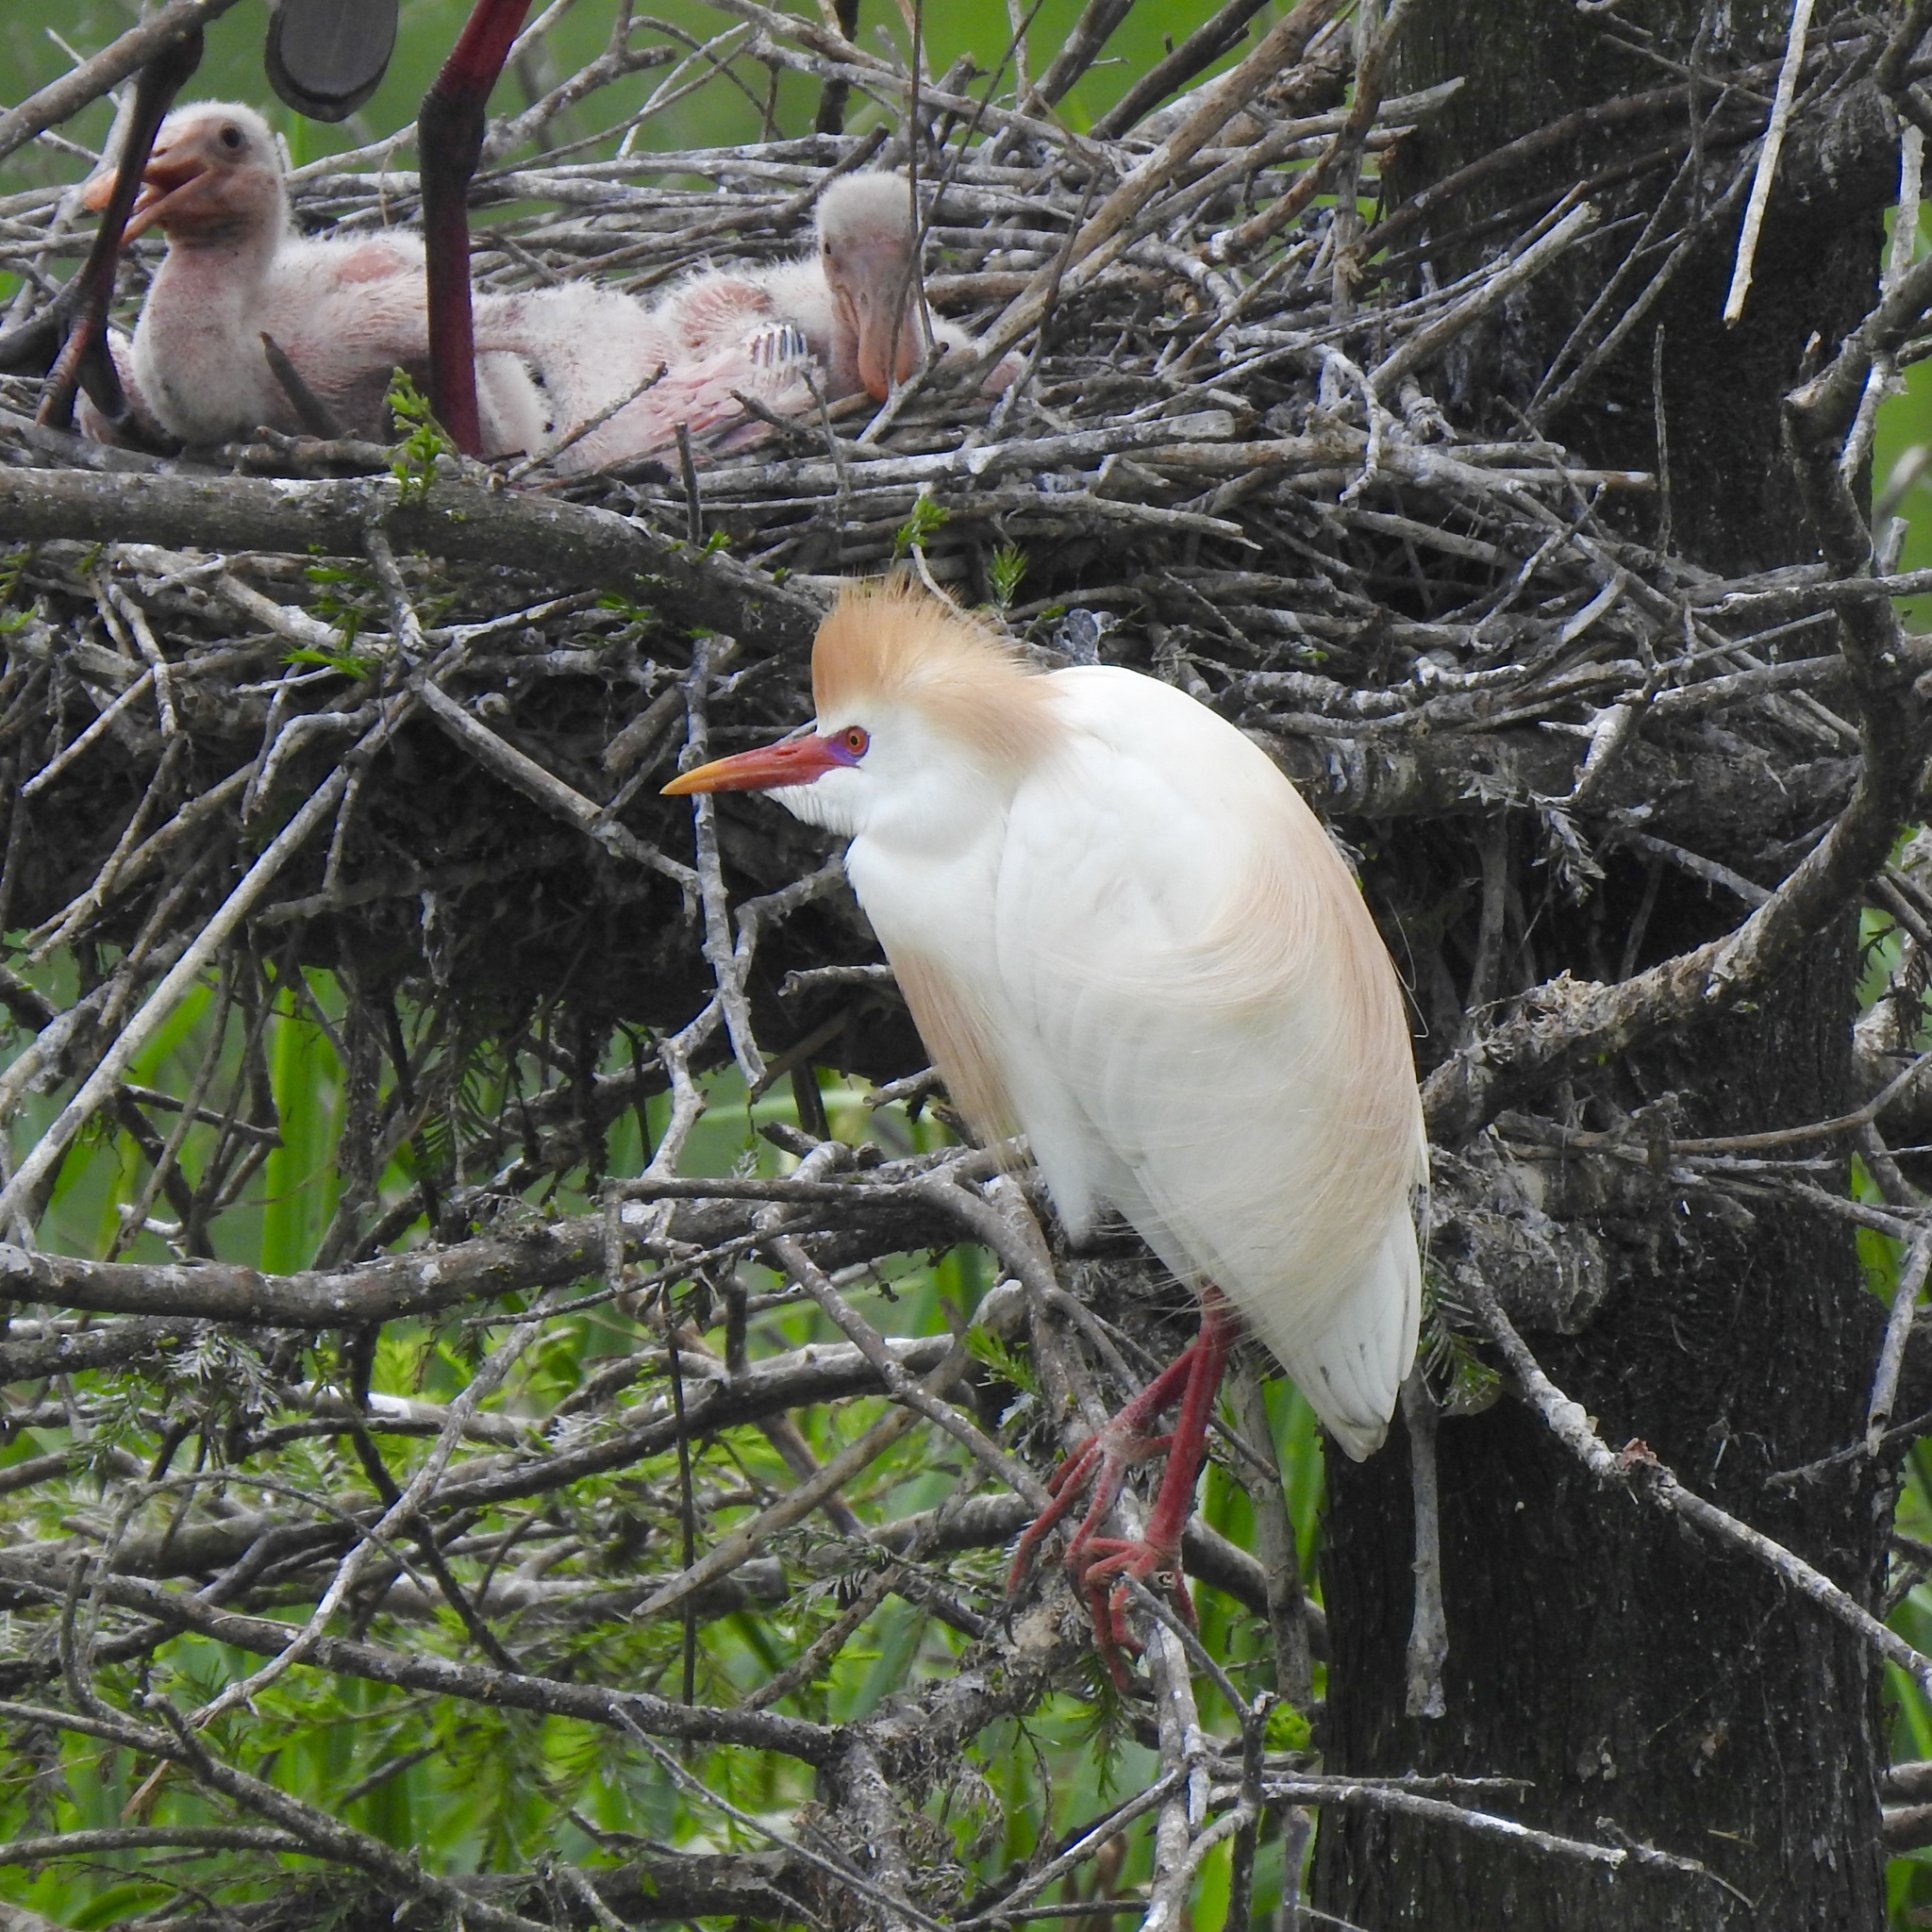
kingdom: Animalia
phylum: Chordata
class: Aves
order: Pelecaniformes
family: Ardeidae
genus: Bubulcus
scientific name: Bubulcus ibis
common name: Cattle egret
